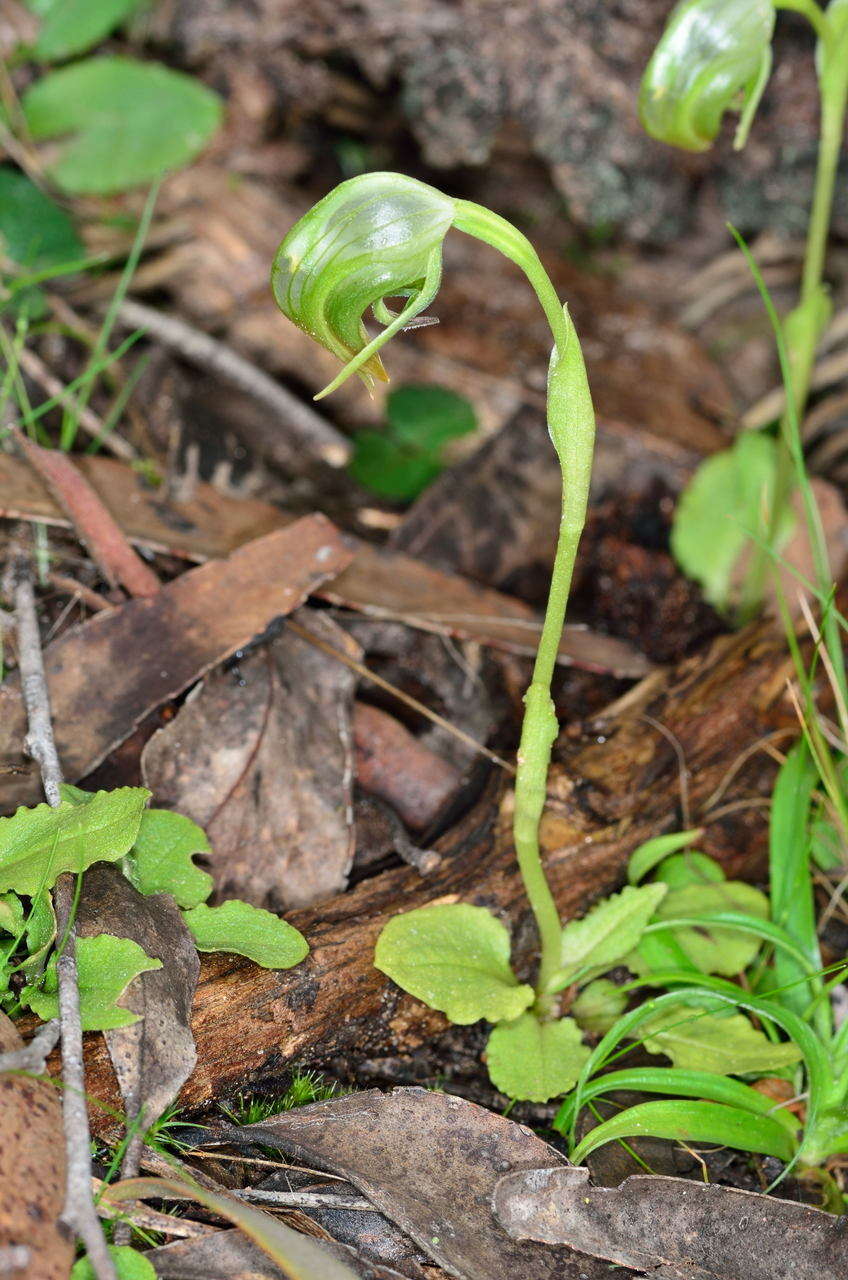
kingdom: Plantae
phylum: Tracheophyta
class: Liliopsida
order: Asparagales
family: Orchidaceae
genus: Pterostylis
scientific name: Pterostylis nutans
